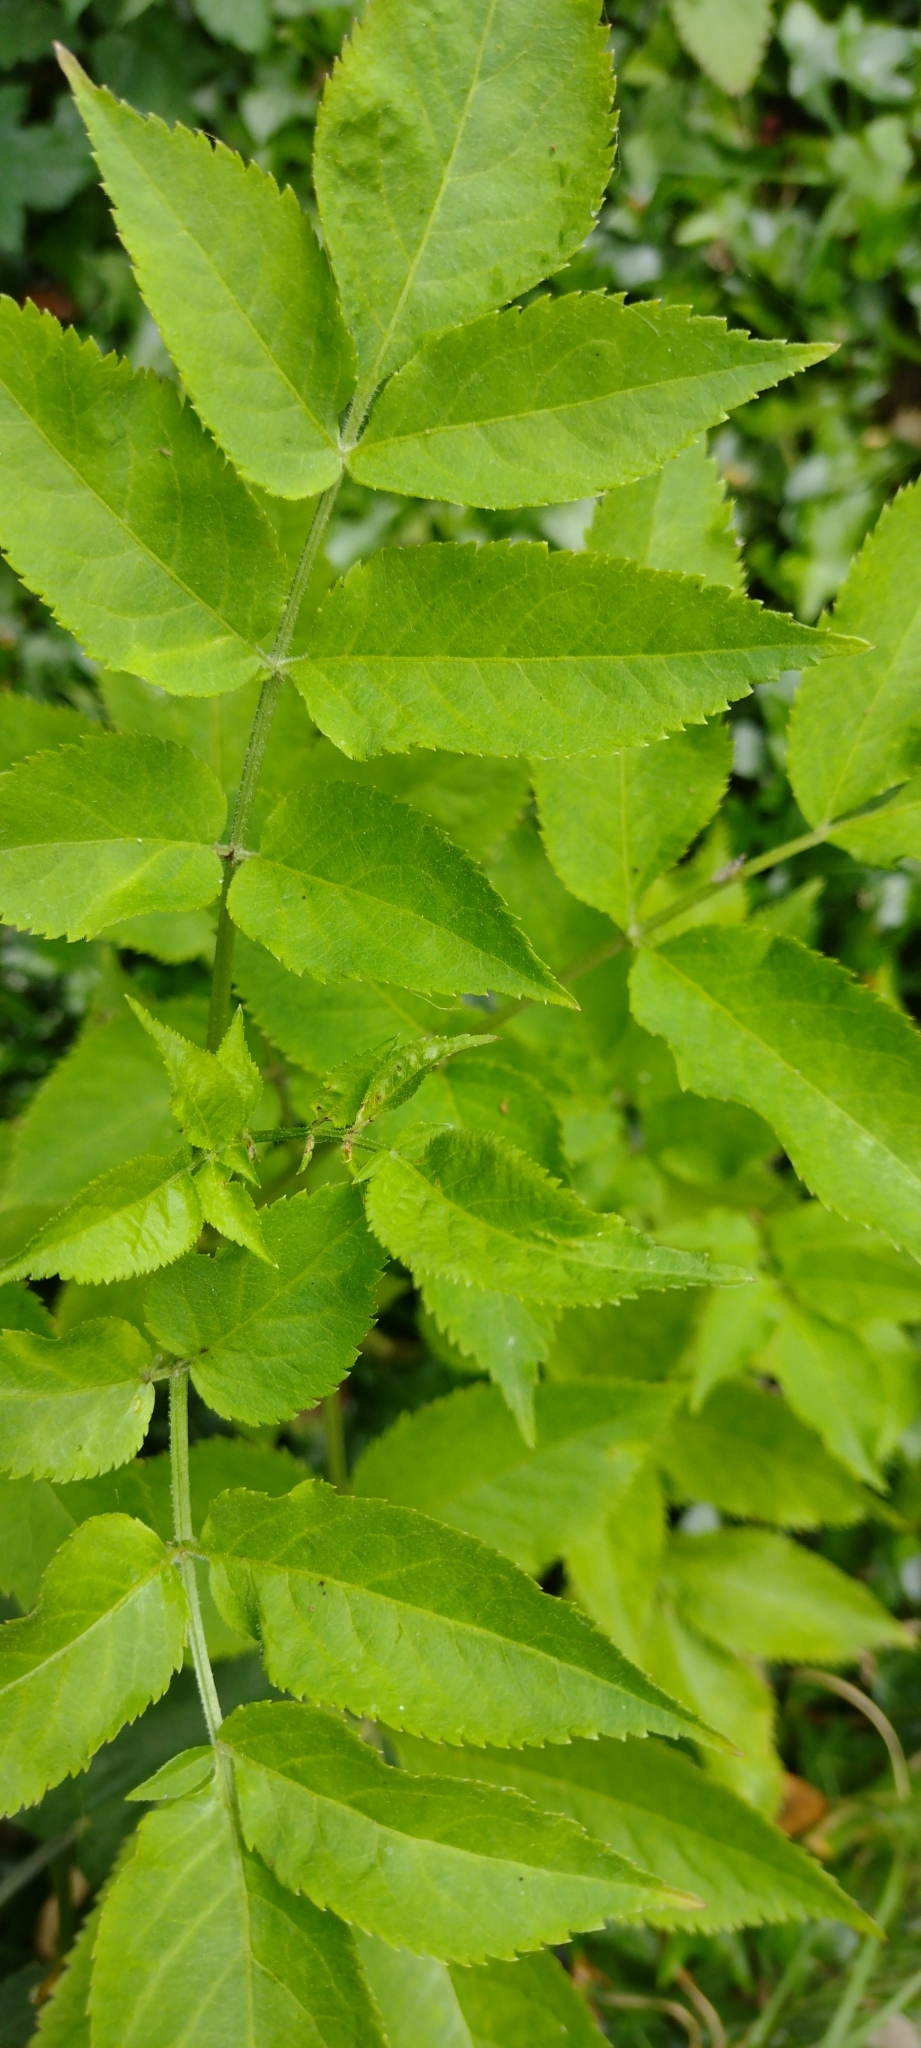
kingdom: Plantae
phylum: Tracheophyta
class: Magnoliopsida
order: Dipsacales
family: Viburnaceae
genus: Sambucus
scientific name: Sambucus nigra
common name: Elder
